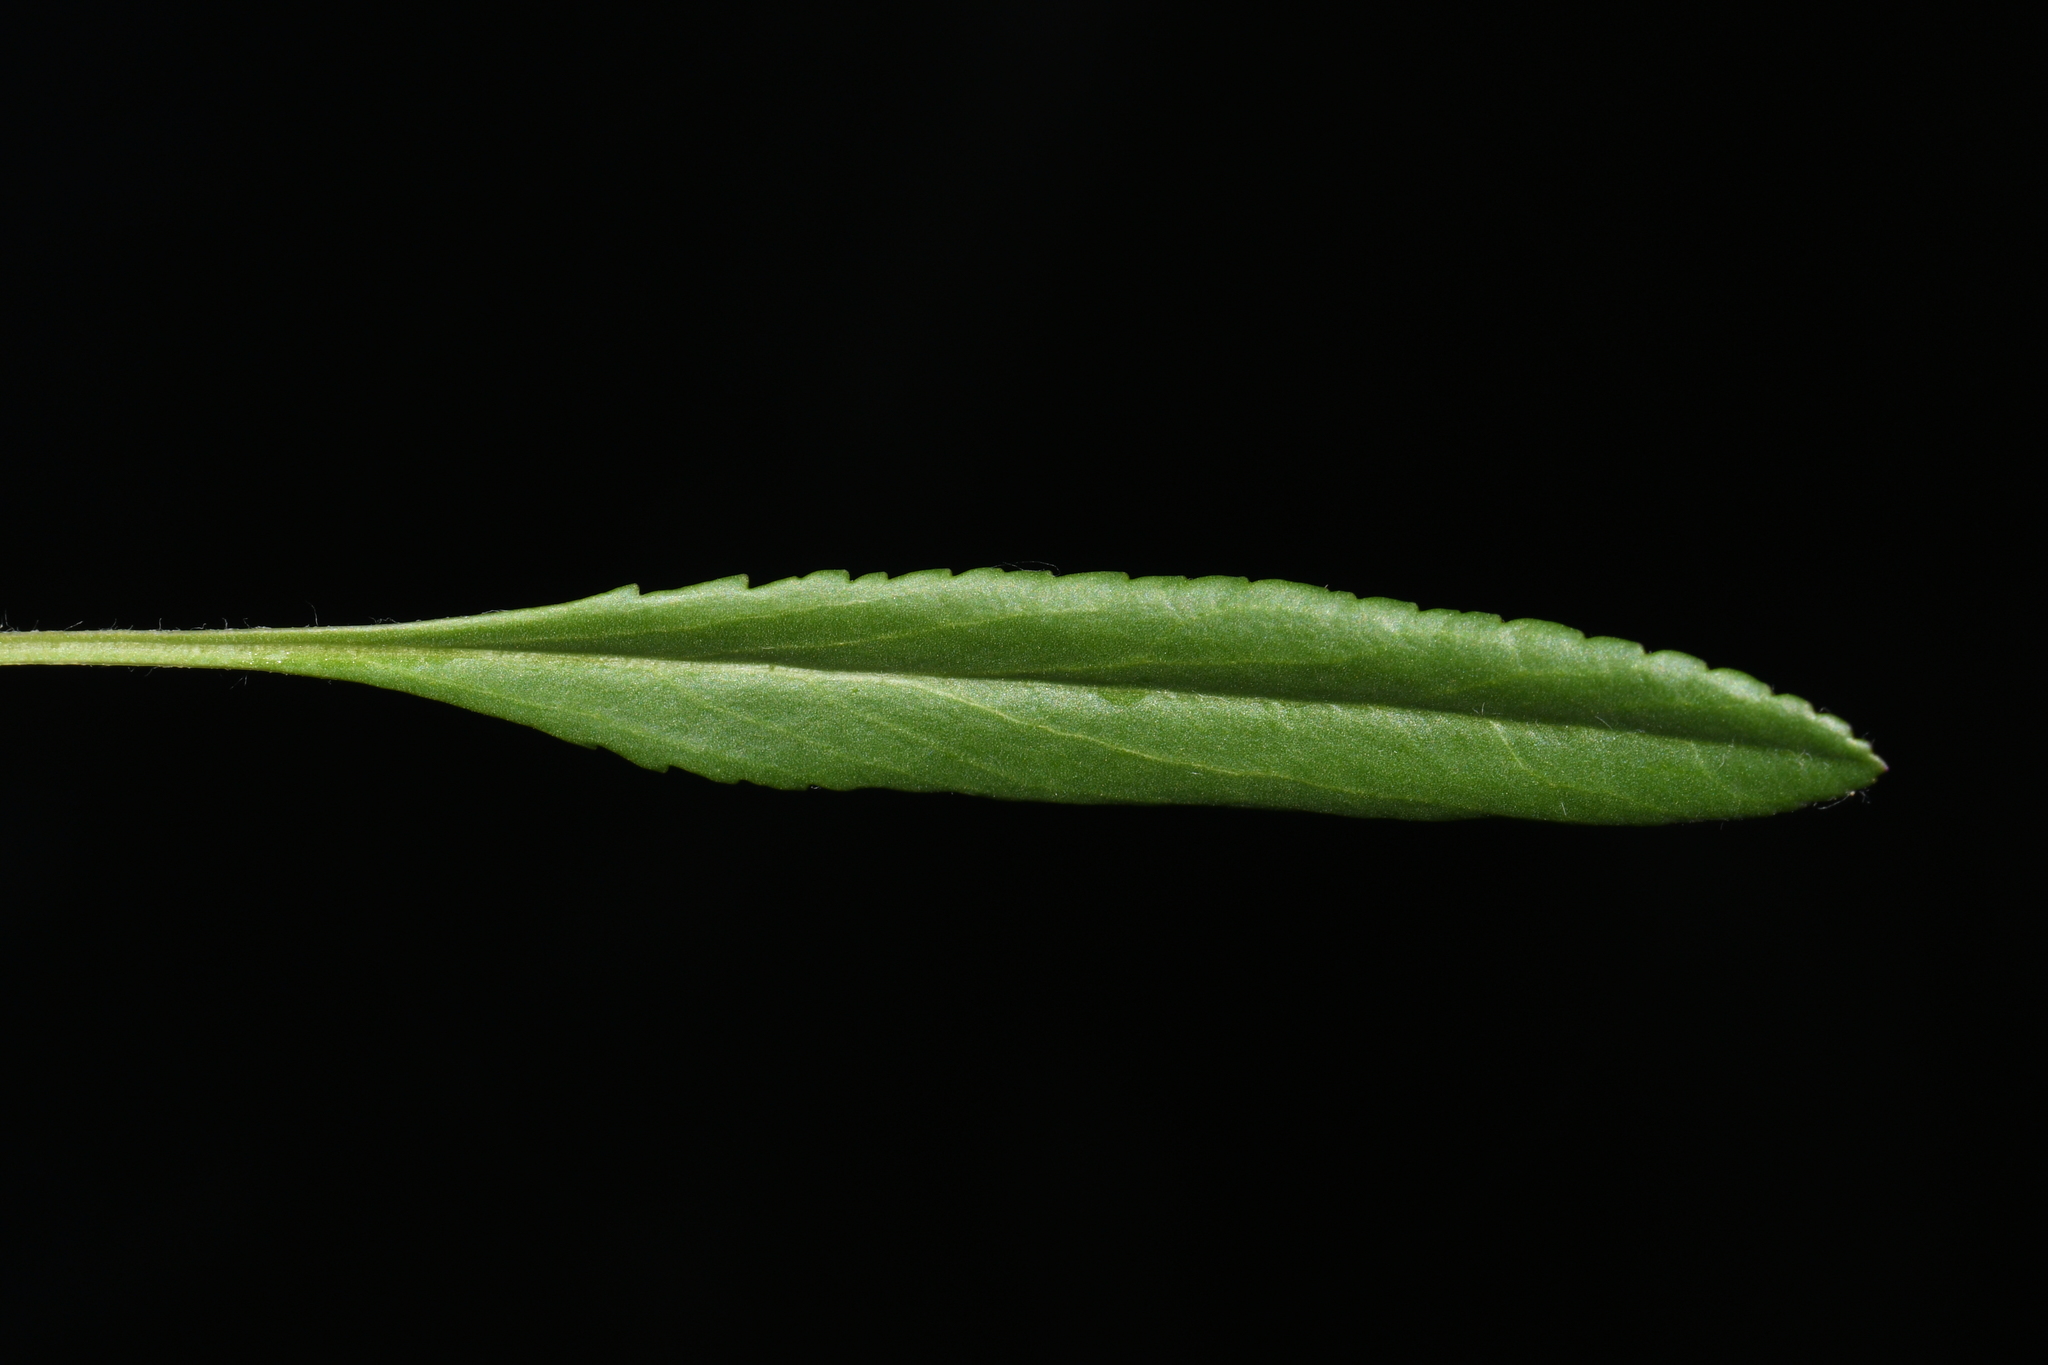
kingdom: Plantae
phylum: Tracheophyta
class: Magnoliopsida
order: Asterales
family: Asteraceae
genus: Packera
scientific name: Packera paupercula
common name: Balsam groundsel
